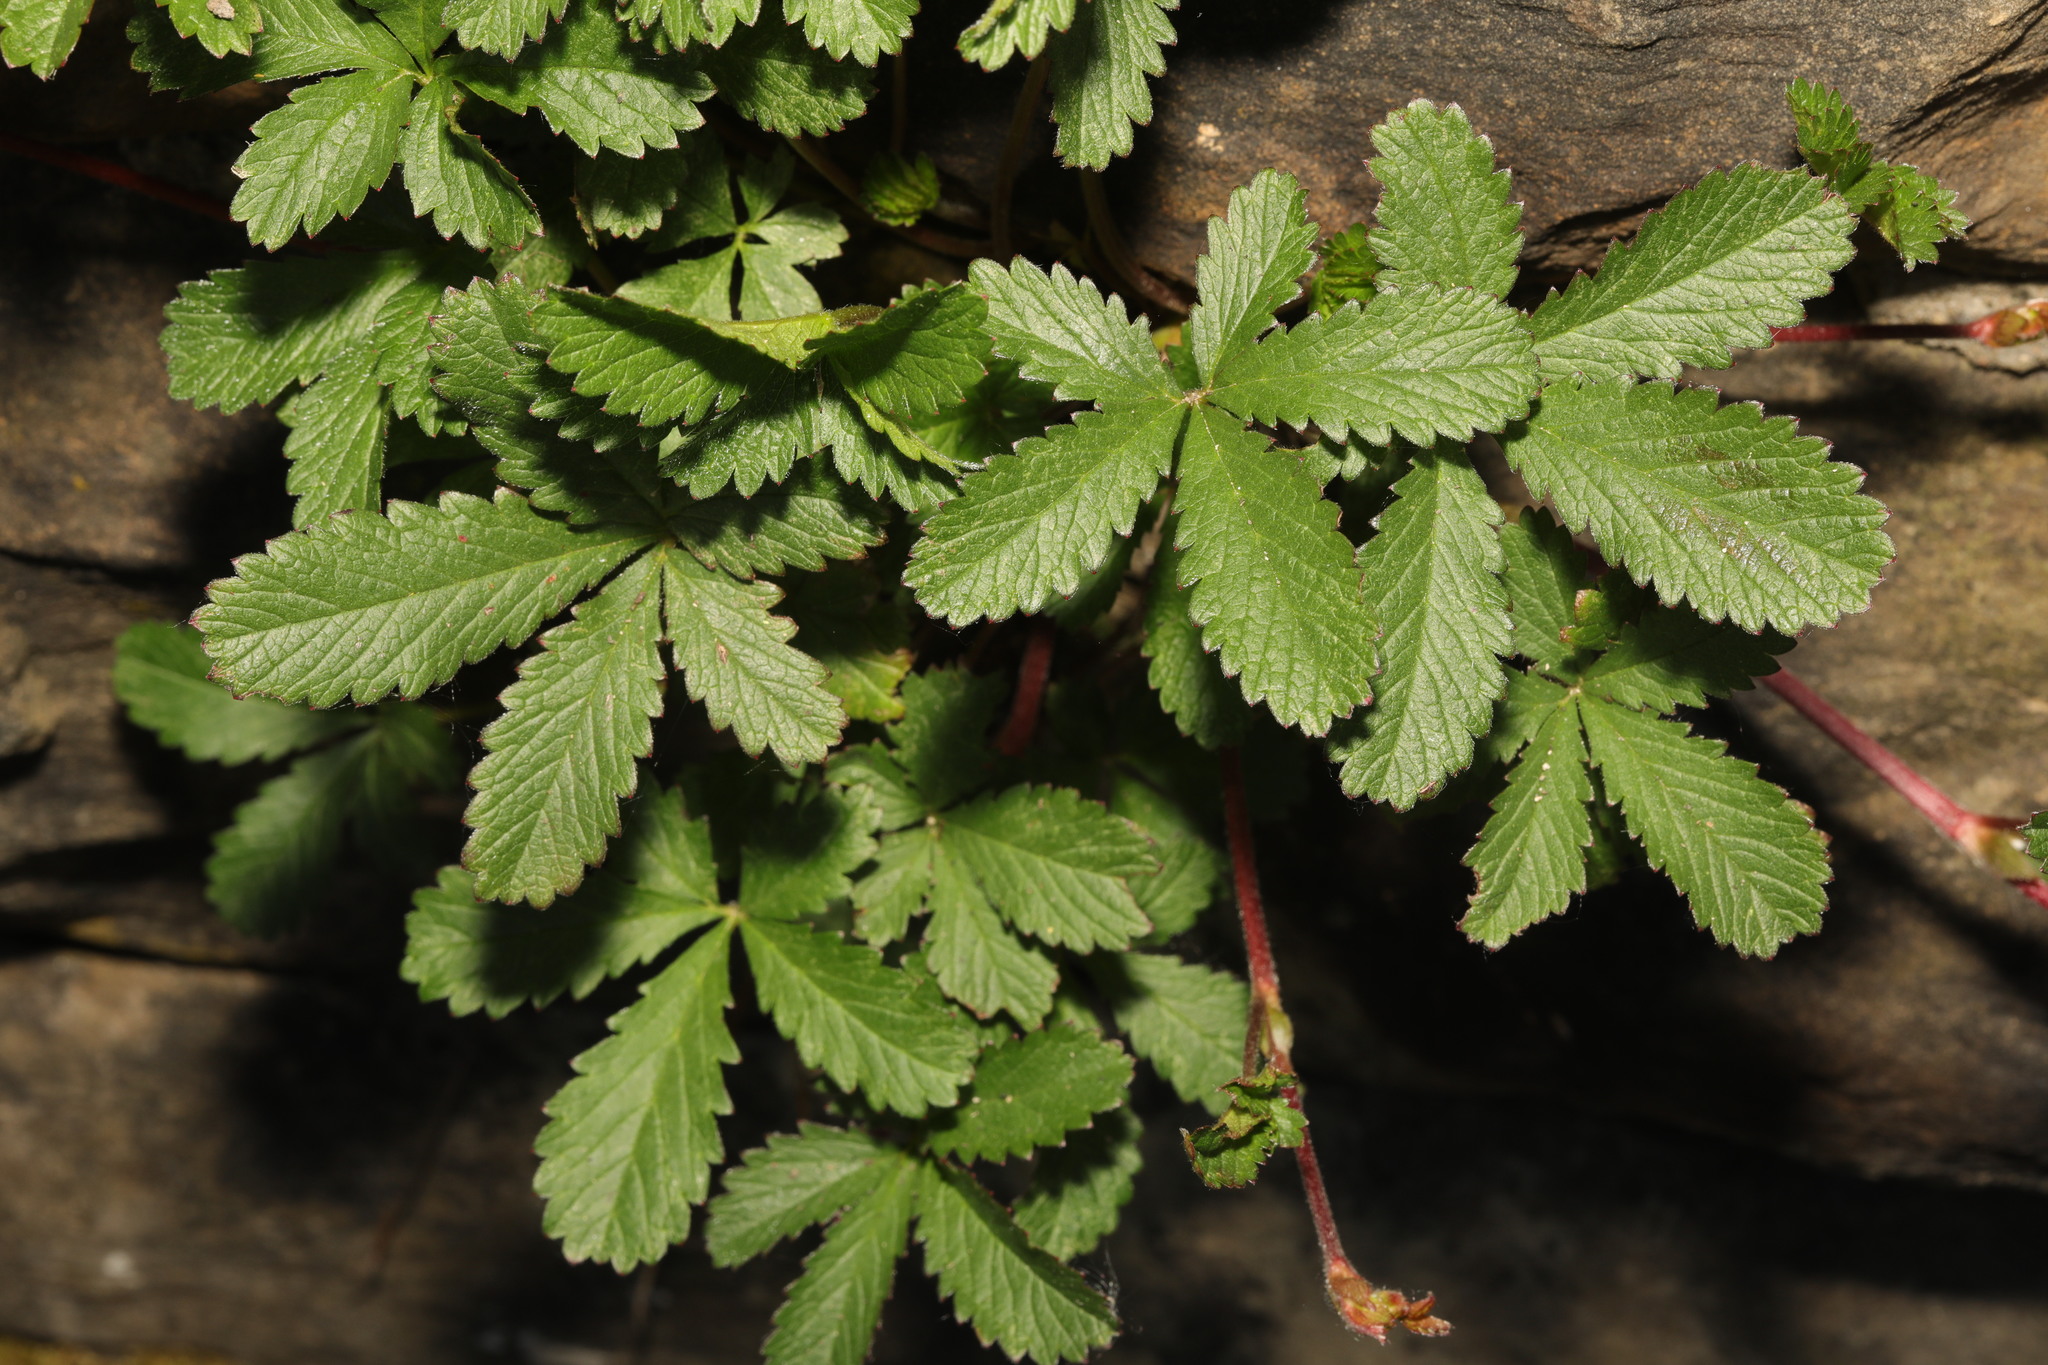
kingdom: Plantae
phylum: Tracheophyta
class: Magnoliopsida
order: Rosales
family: Rosaceae
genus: Potentilla
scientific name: Potentilla reptans
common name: Creeping cinquefoil
